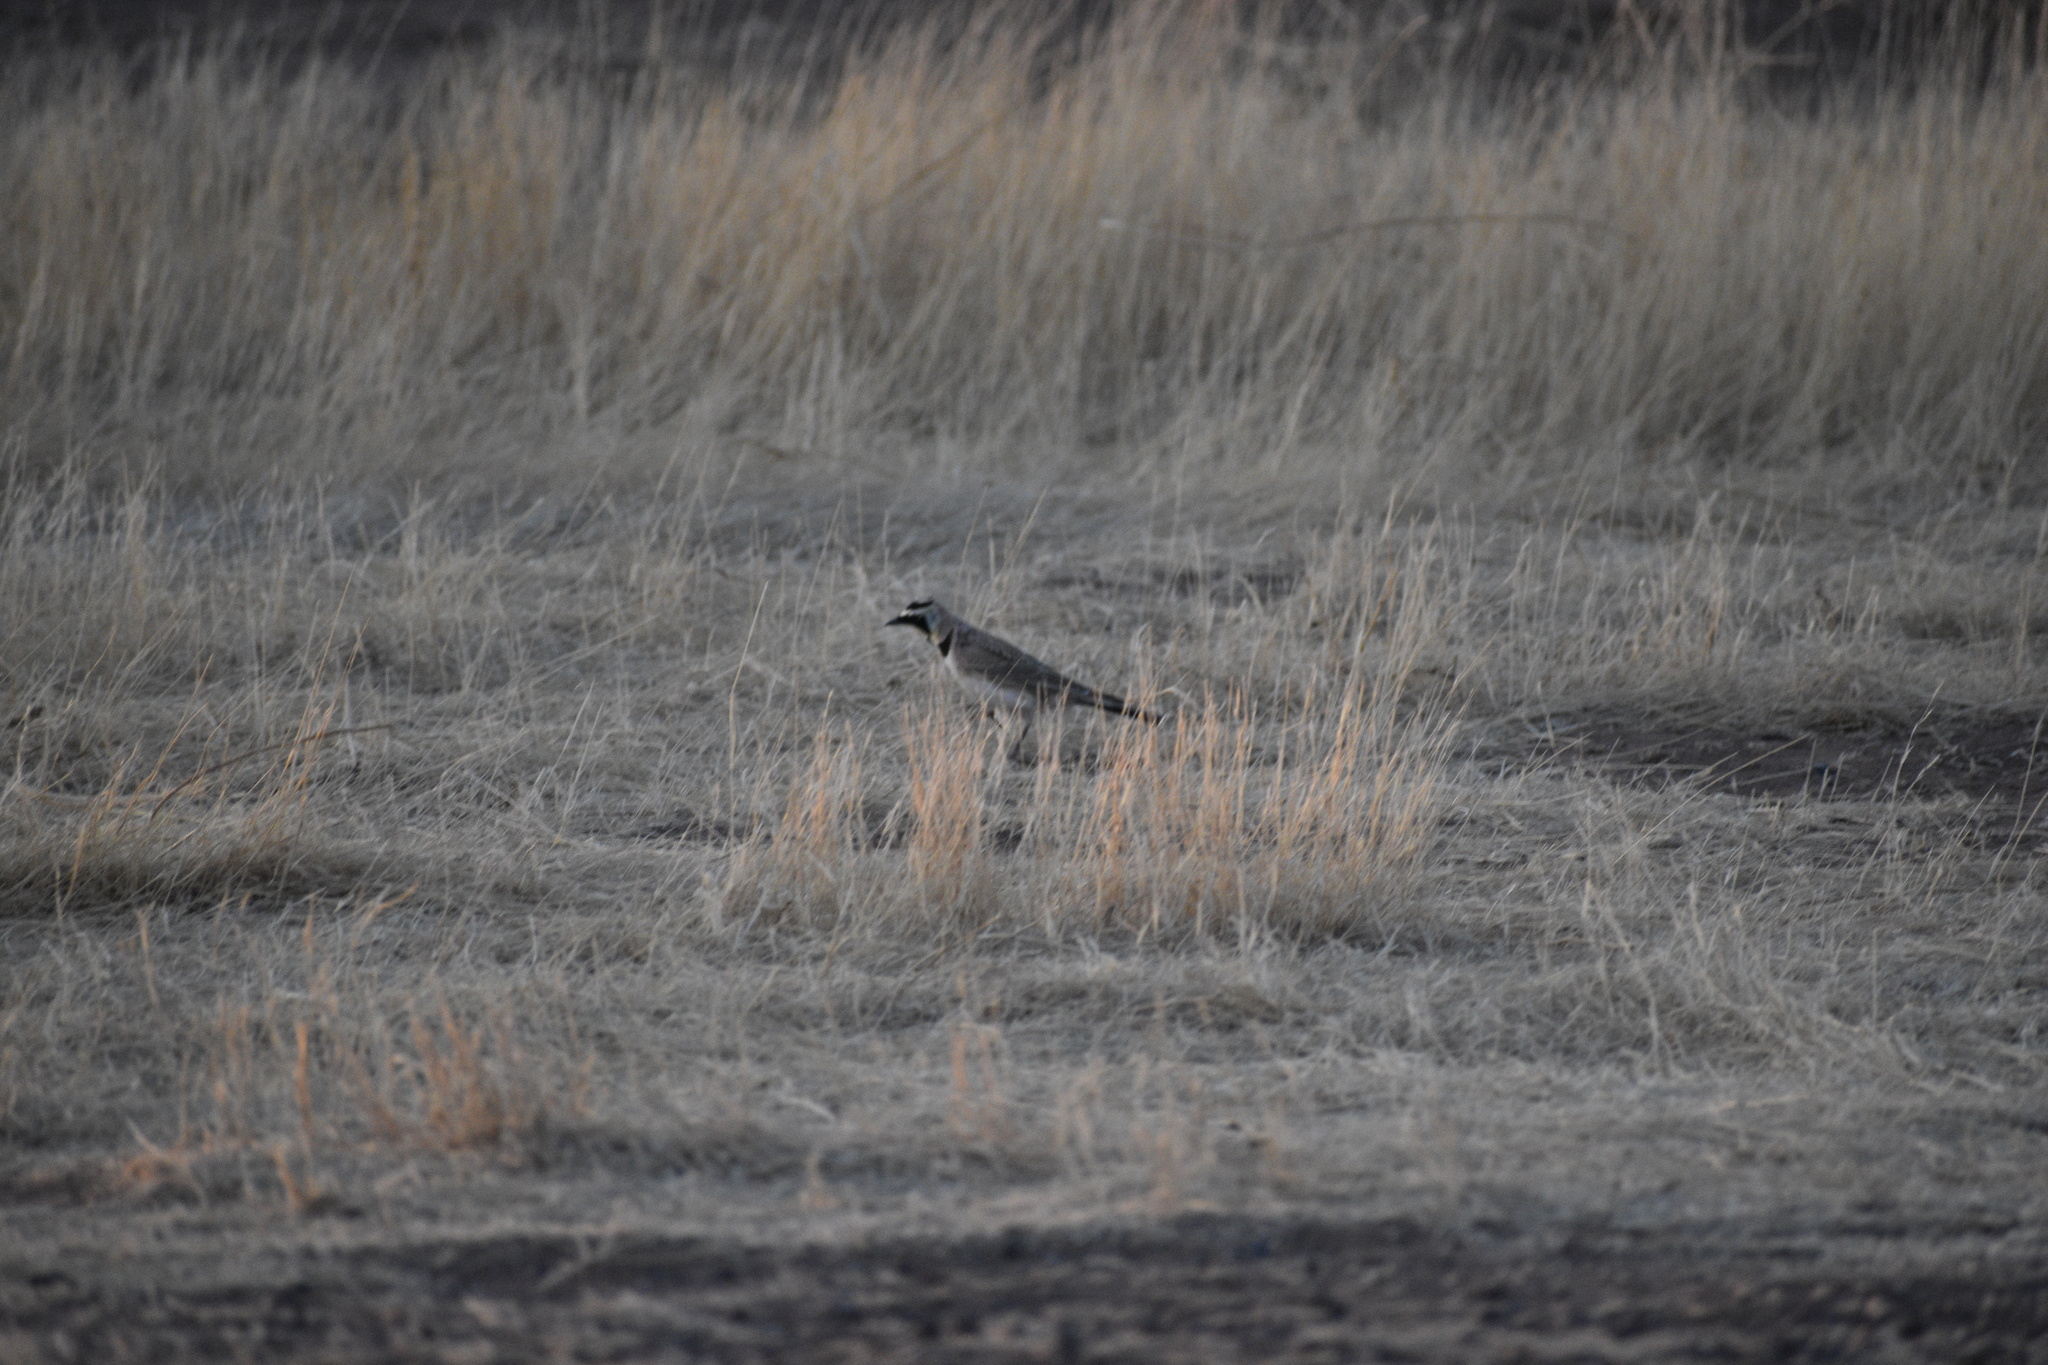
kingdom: Animalia
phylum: Chordata
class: Aves
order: Passeriformes
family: Alaudidae
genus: Eremophila
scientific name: Eremophila alpestris
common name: Horned lark
